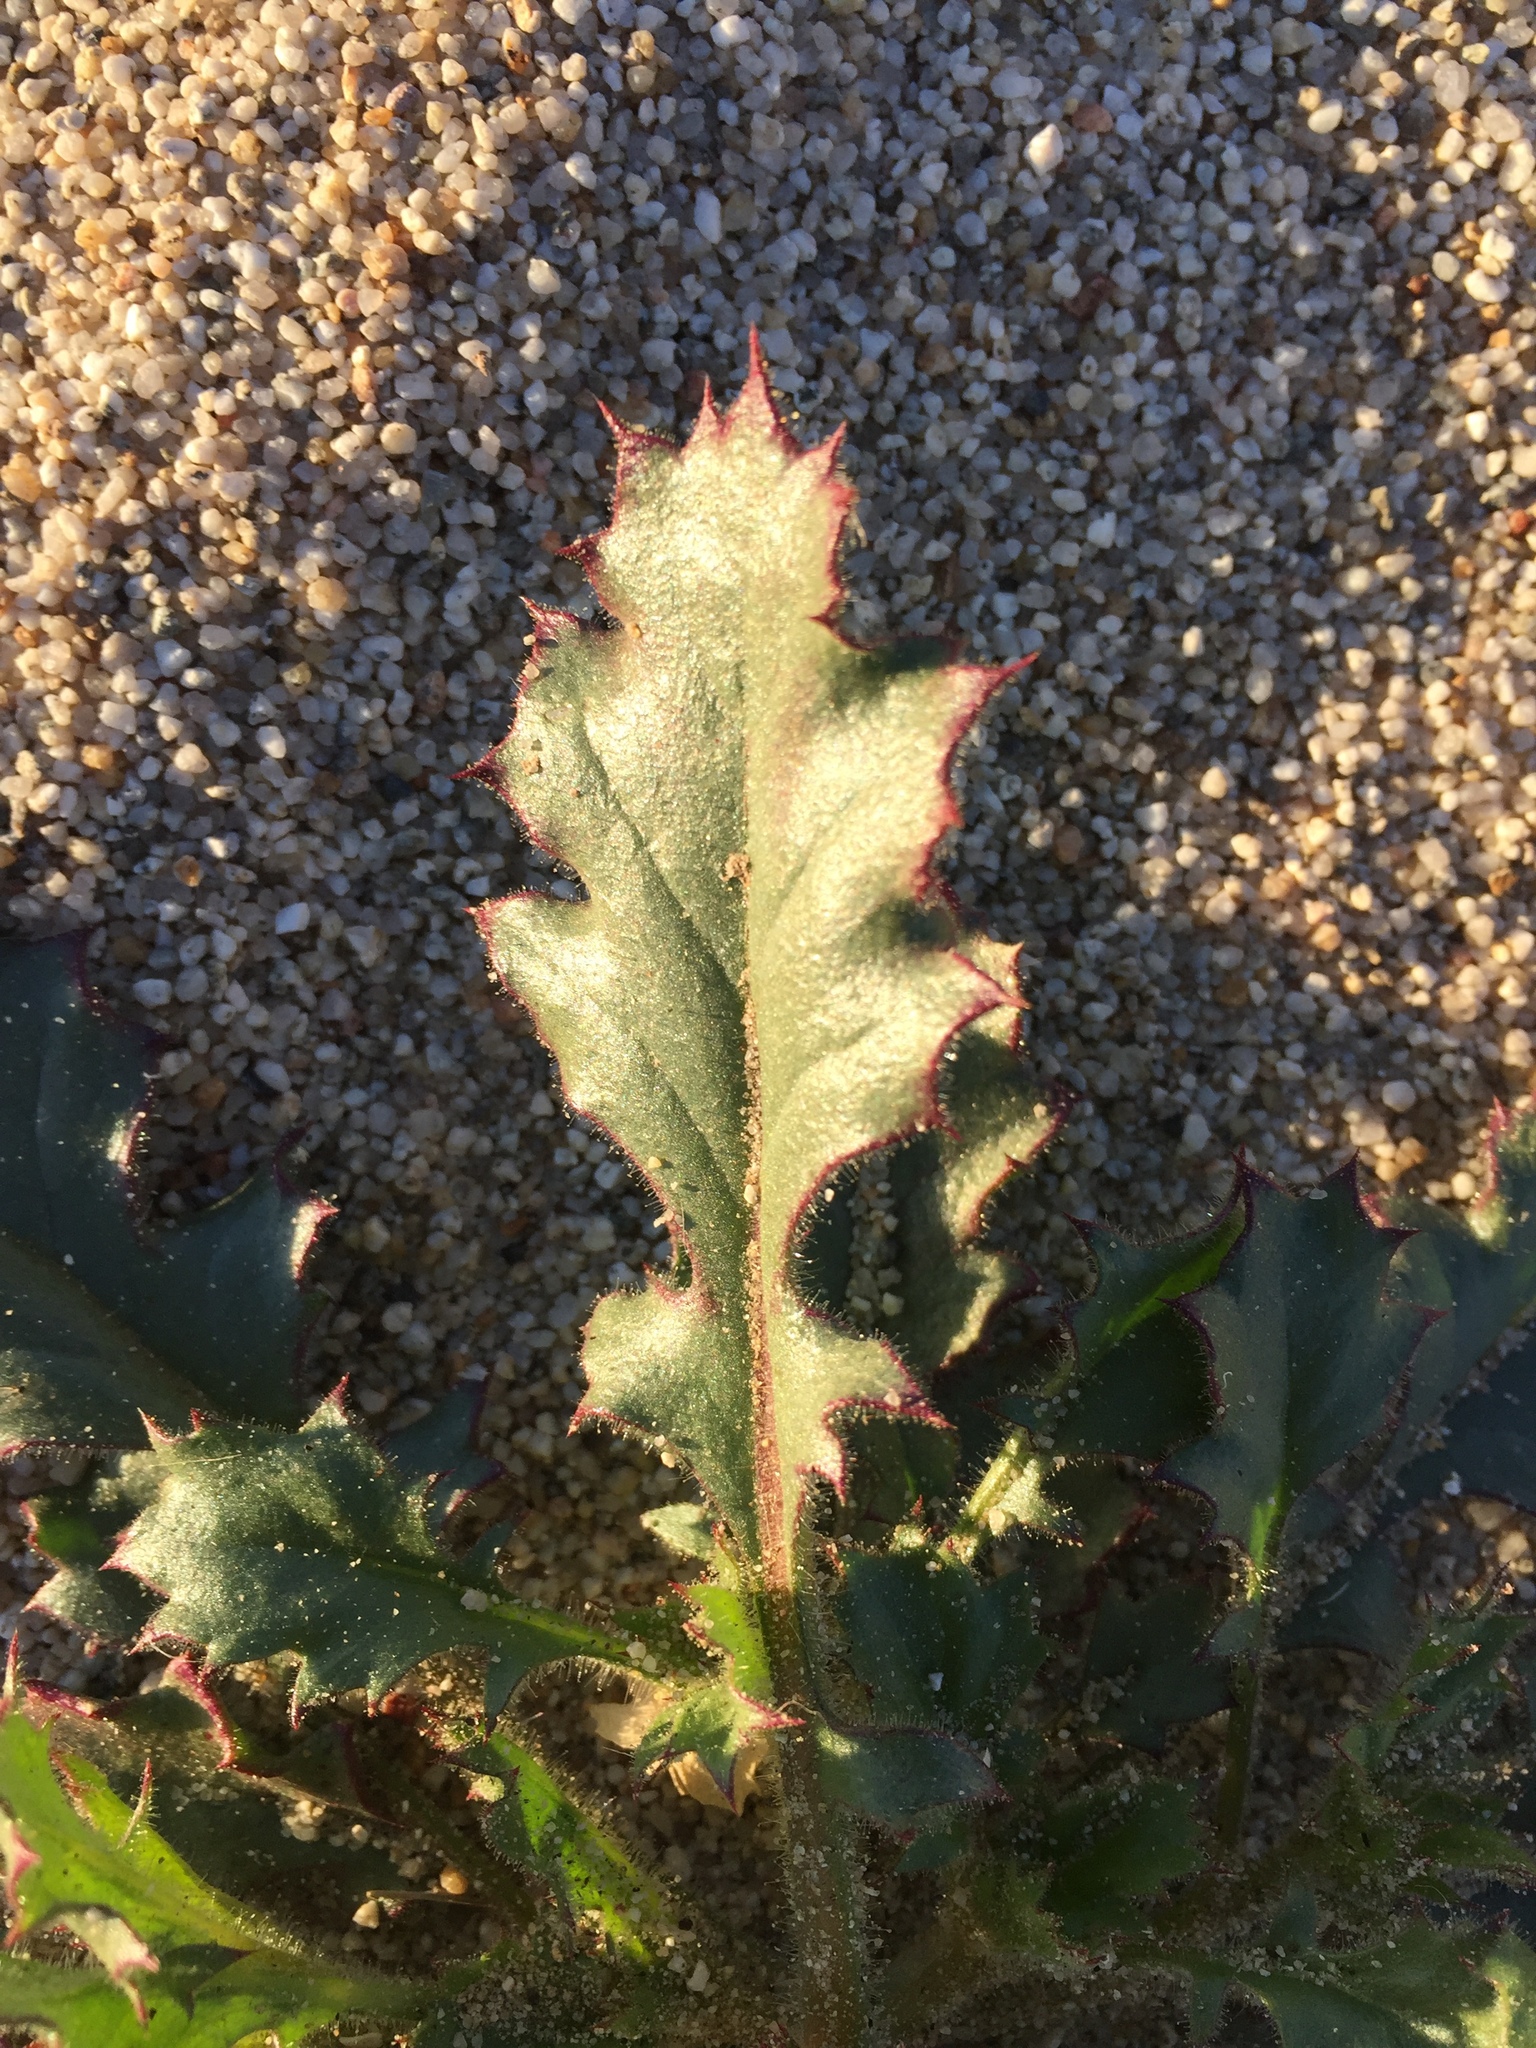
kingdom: Plantae
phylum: Tracheophyta
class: Magnoliopsida
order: Ericales
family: Polemoniaceae
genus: Aliciella
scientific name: Aliciella latifolia
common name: Broad-leaf gilia
